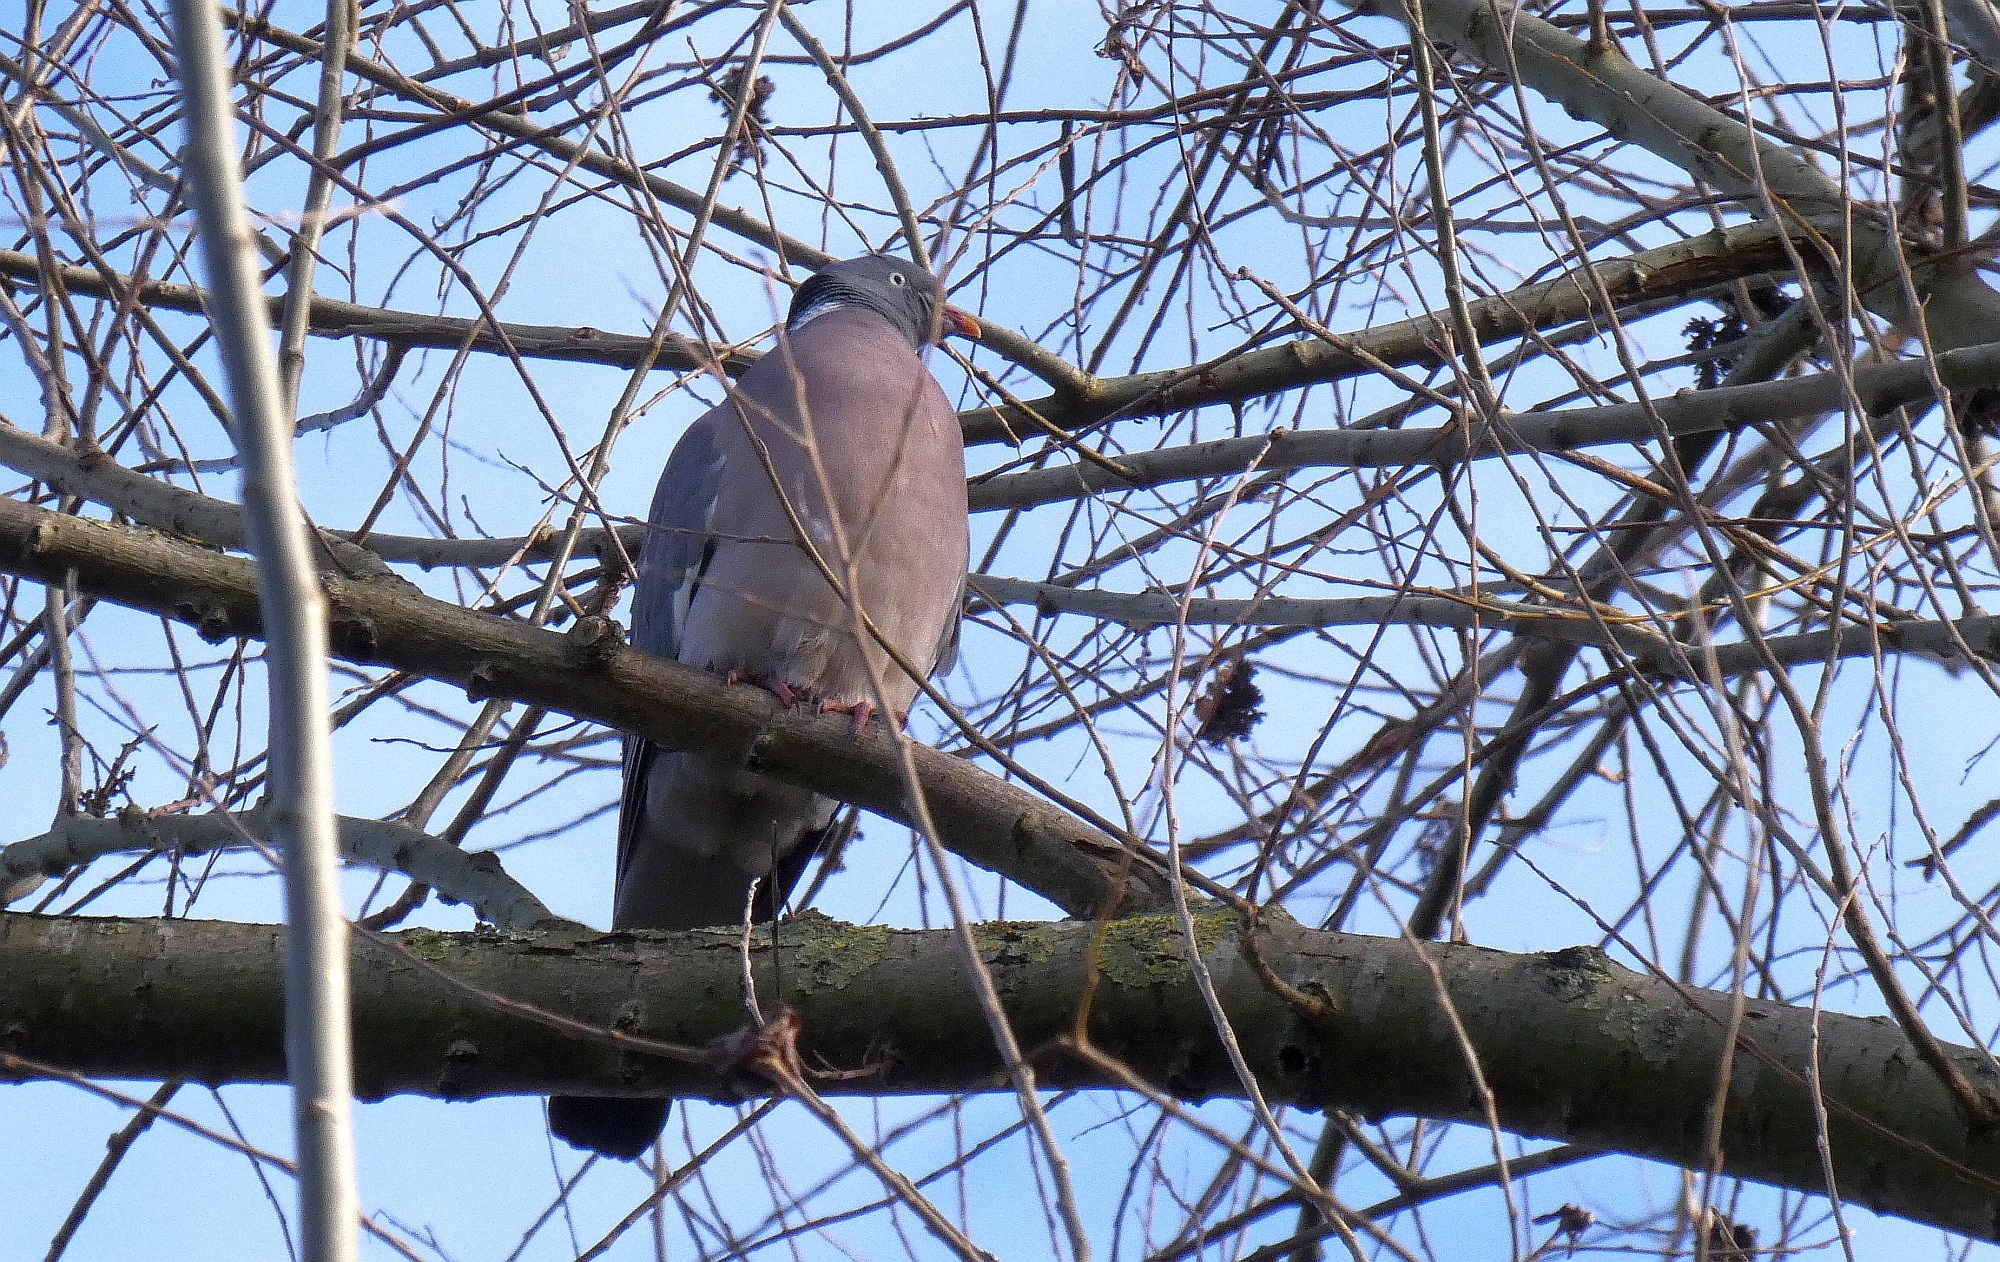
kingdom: Animalia
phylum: Chordata
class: Aves
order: Columbiformes
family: Columbidae
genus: Columba
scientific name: Columba palumbus
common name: Common wood pigeon
